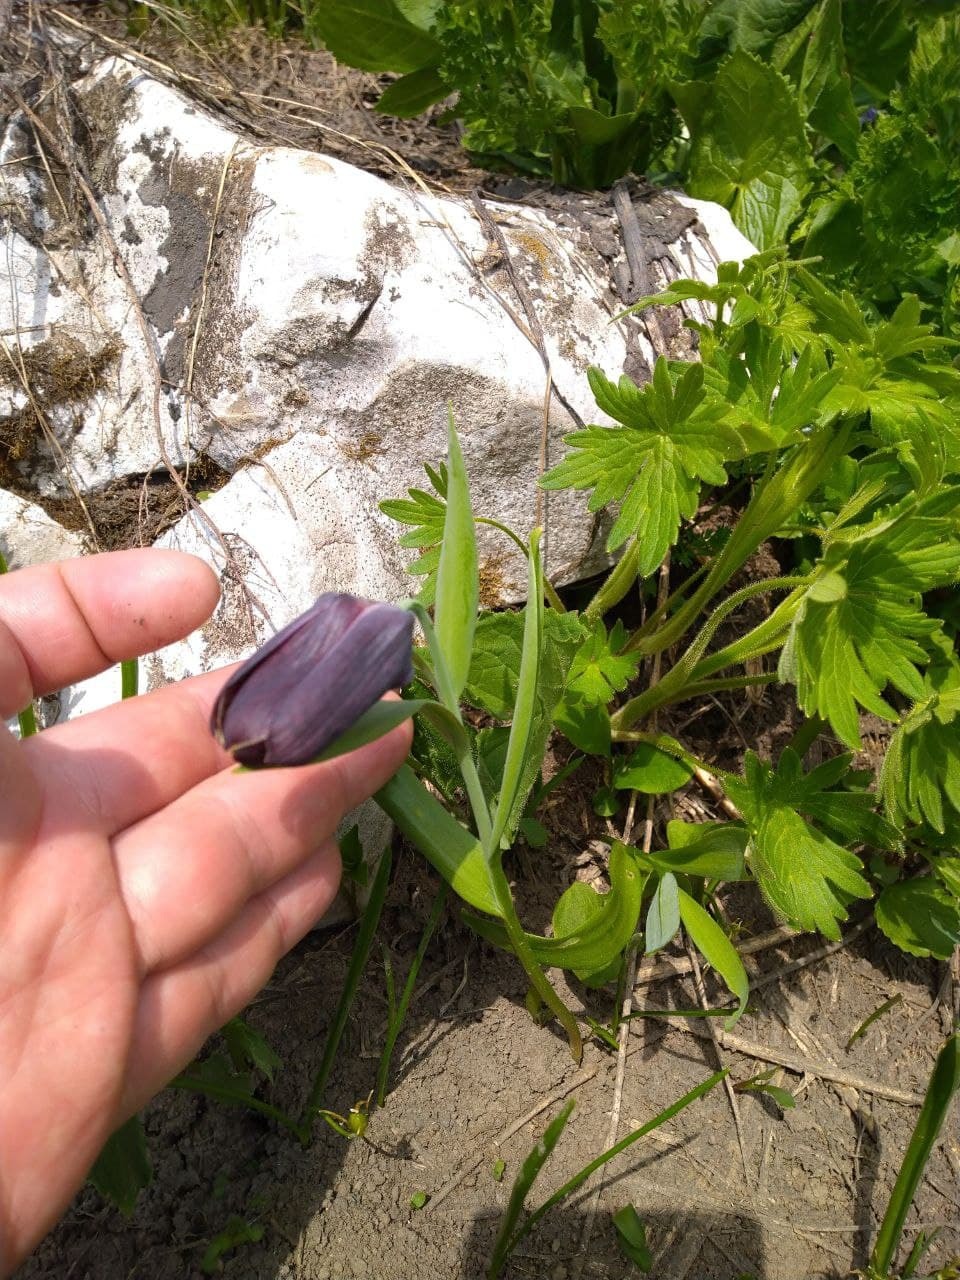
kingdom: Plantae
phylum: Tracheophyta
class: Liliopsida
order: Liliales
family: Liliaceae
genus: Fritillaria
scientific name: Fritillaria latifolia
